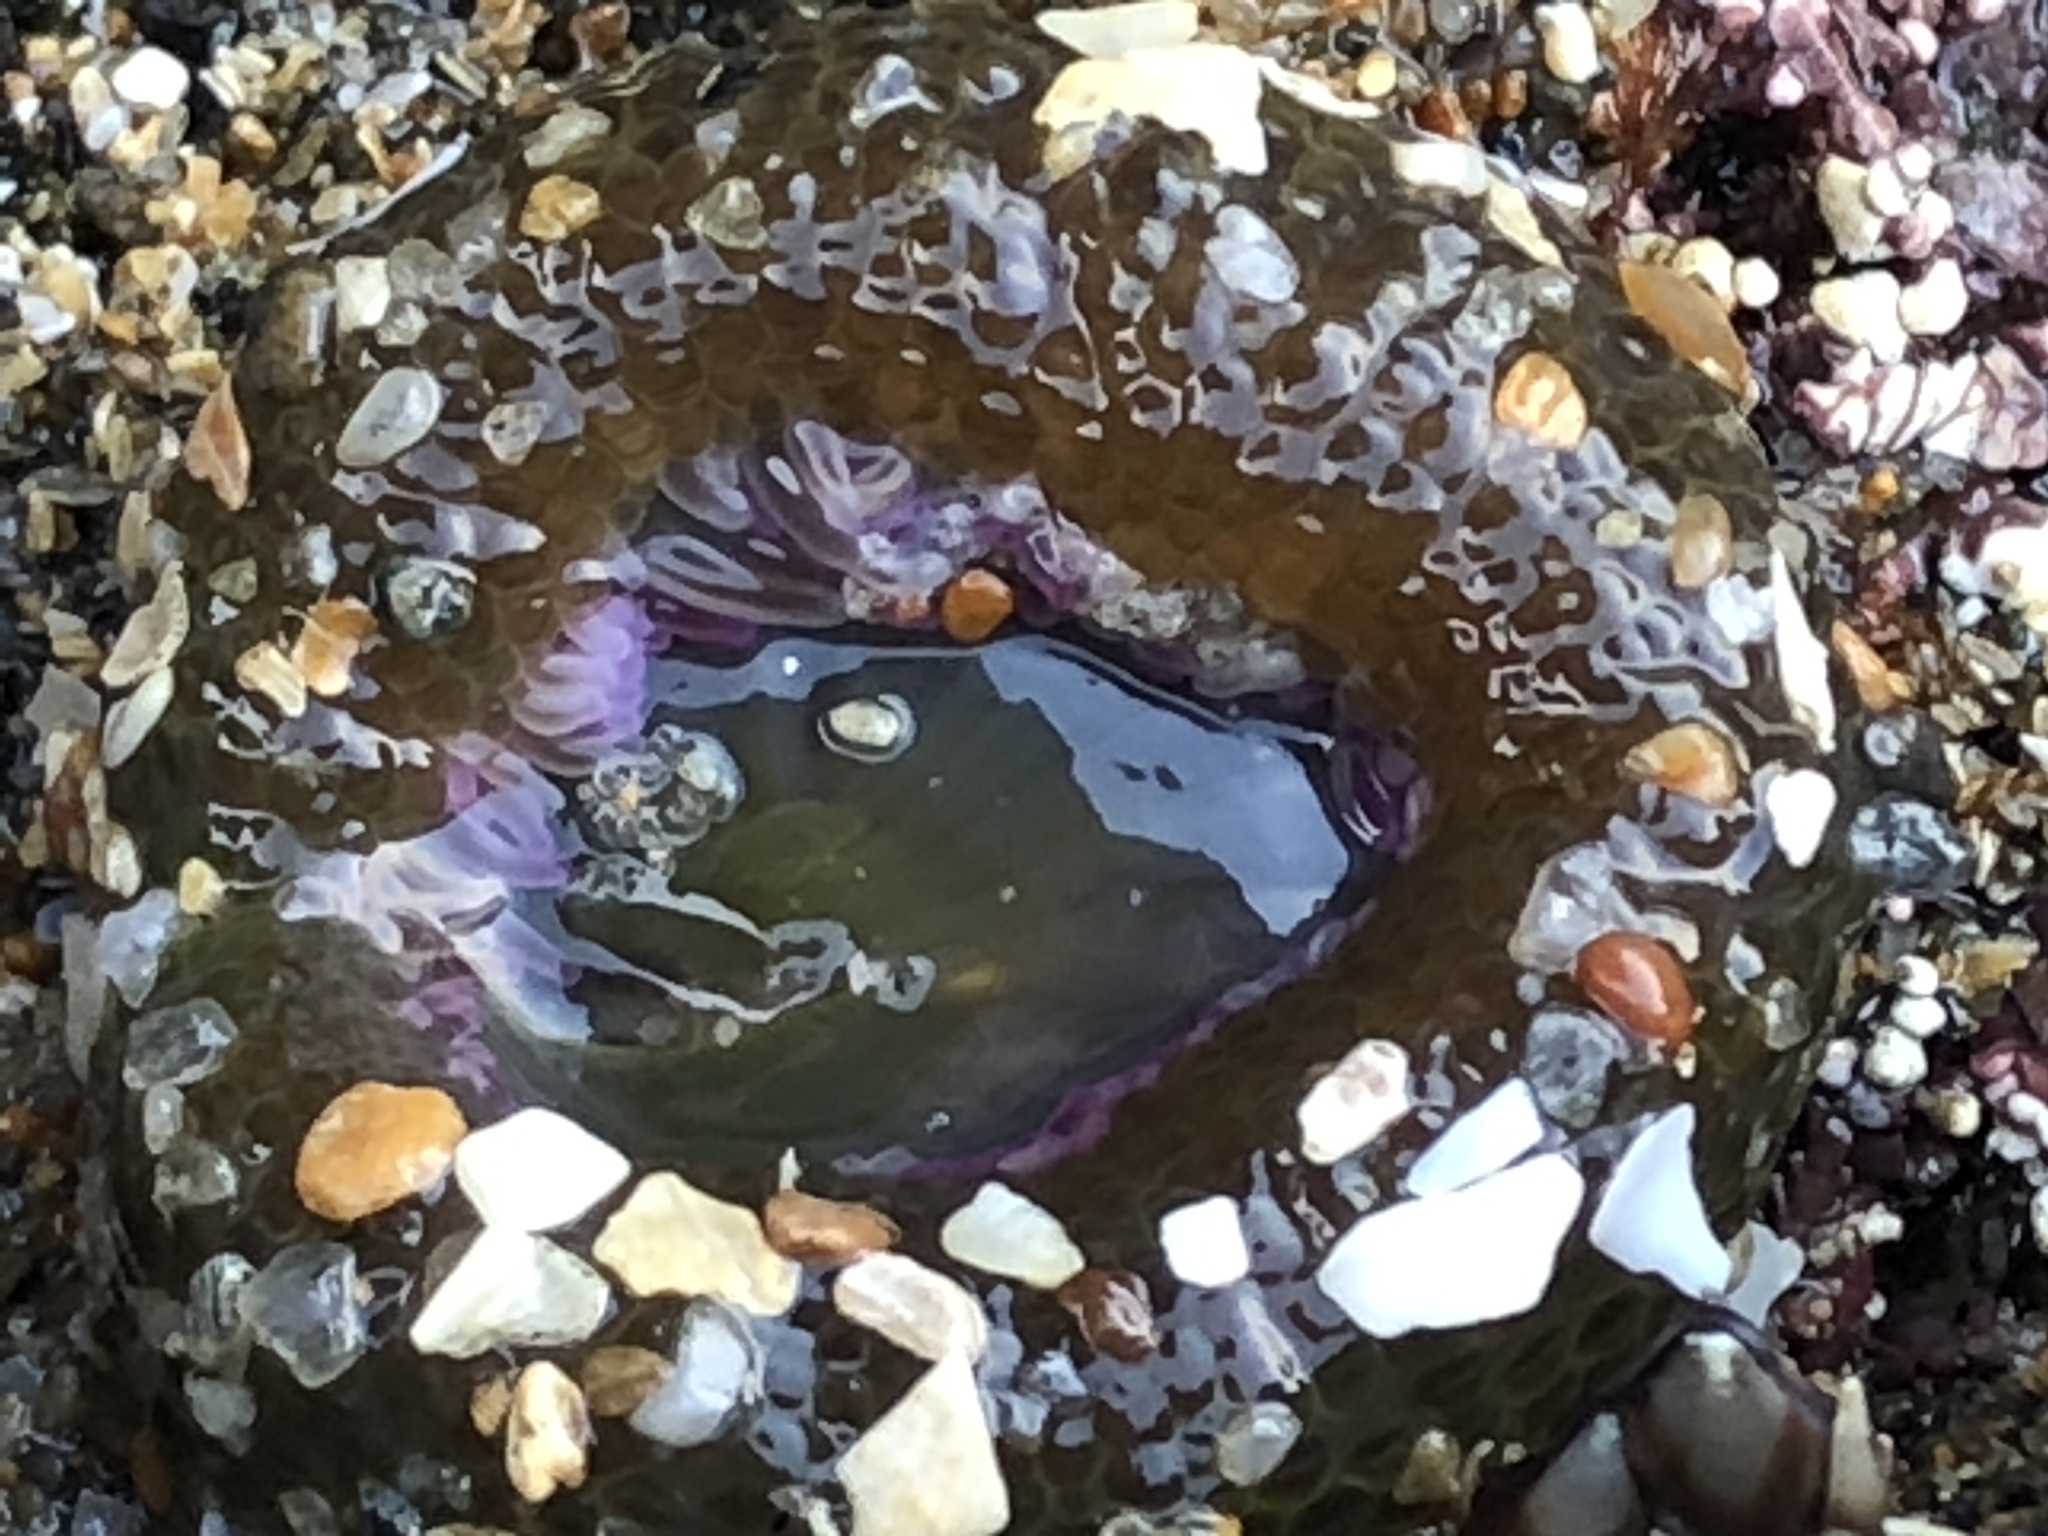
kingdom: Animalia
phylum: Cnidaria
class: Anthozoa
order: Actiniaria
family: Actiniidae
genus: Anthopleura
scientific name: Anthopleura elegantissima
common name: Clonal anemone
